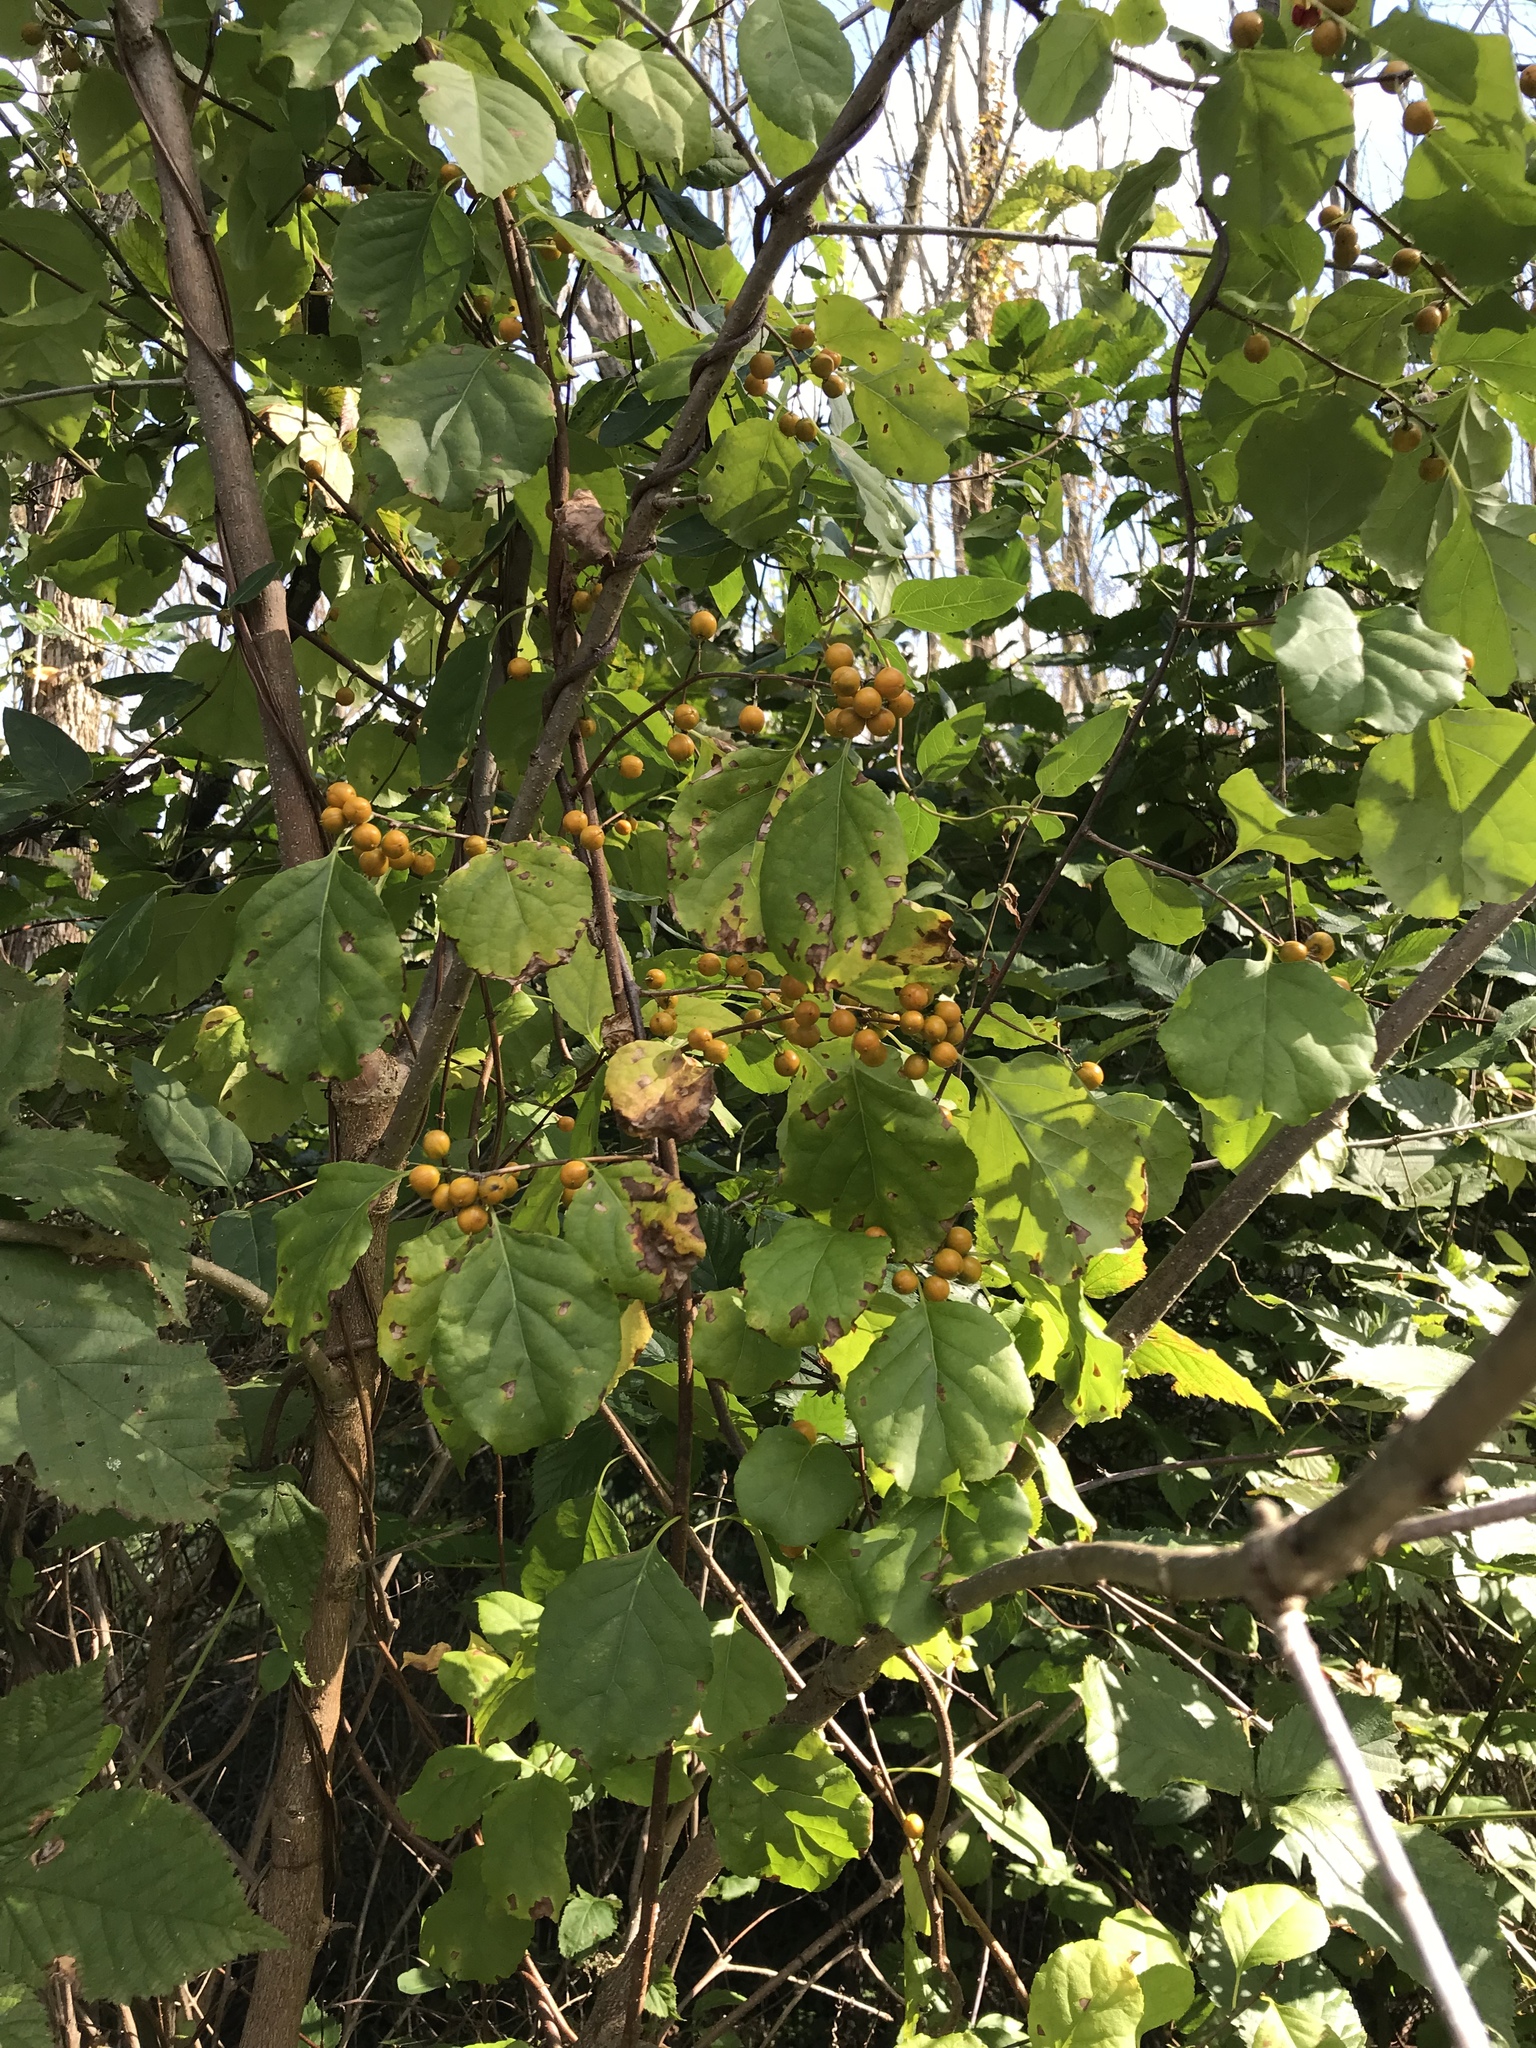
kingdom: Plantae
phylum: Tracheophyta
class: Magnoliopsida
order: Celastrales
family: Celastraceae
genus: Celastrus
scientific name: Celastrus orbiculatus
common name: Oriental bittersweet
